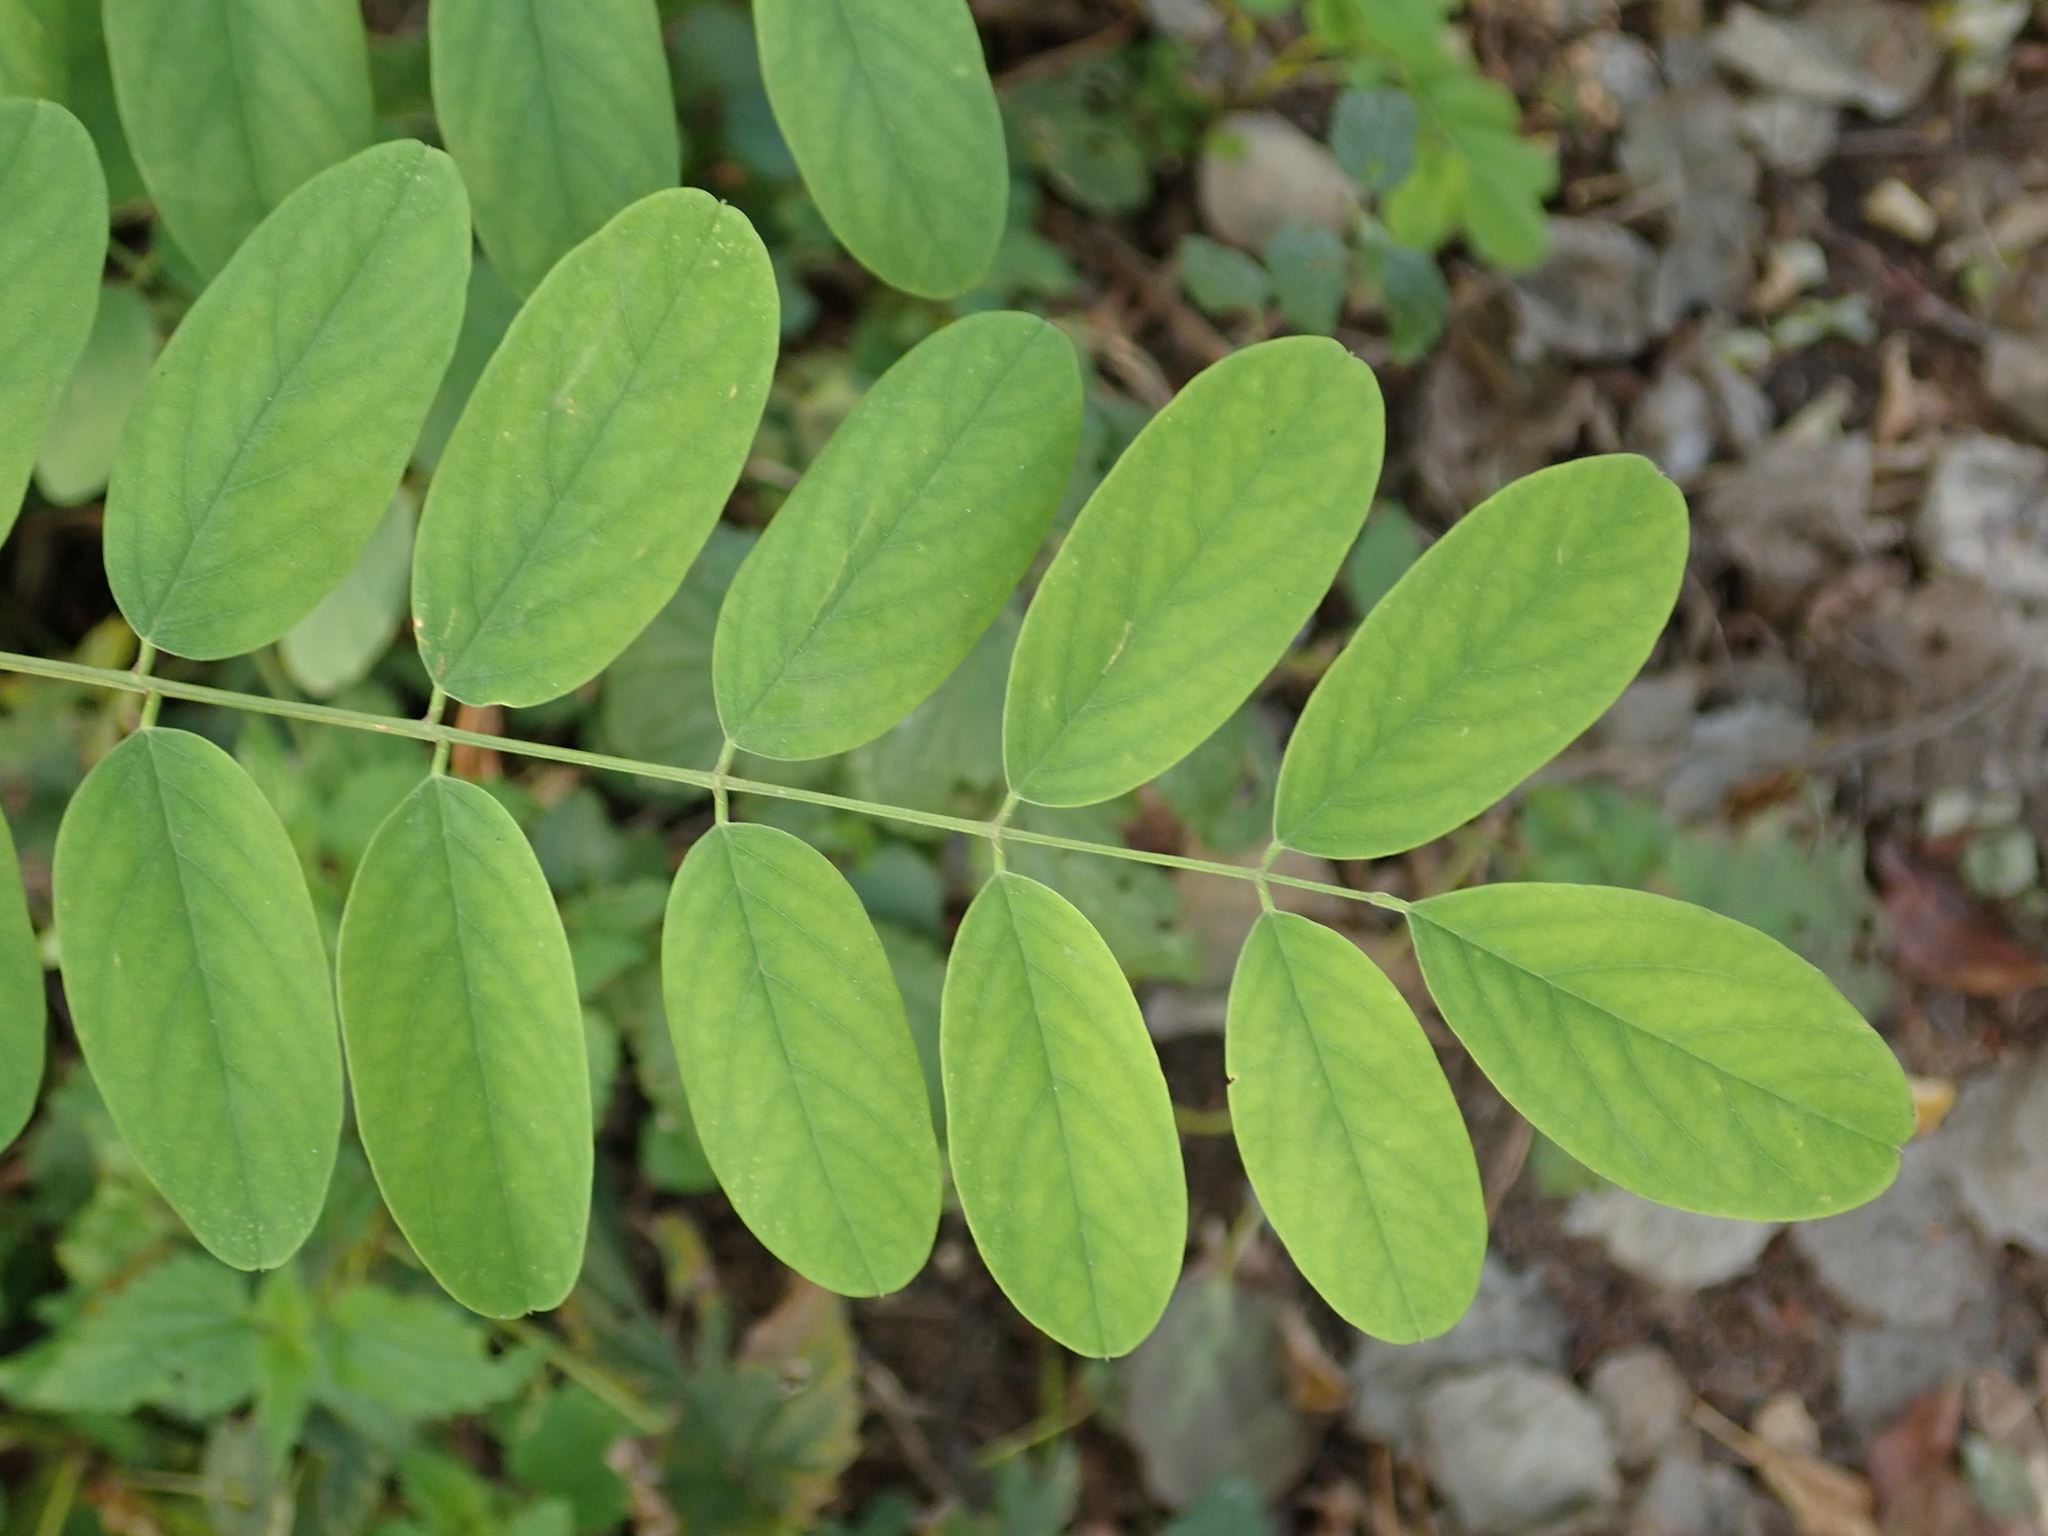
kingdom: Plantae
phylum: Tracheophyta
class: Magnoliopsida
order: Fabales
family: Fabaceae
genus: Robinia
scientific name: Robinia pseudoacacia
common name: Black locust
